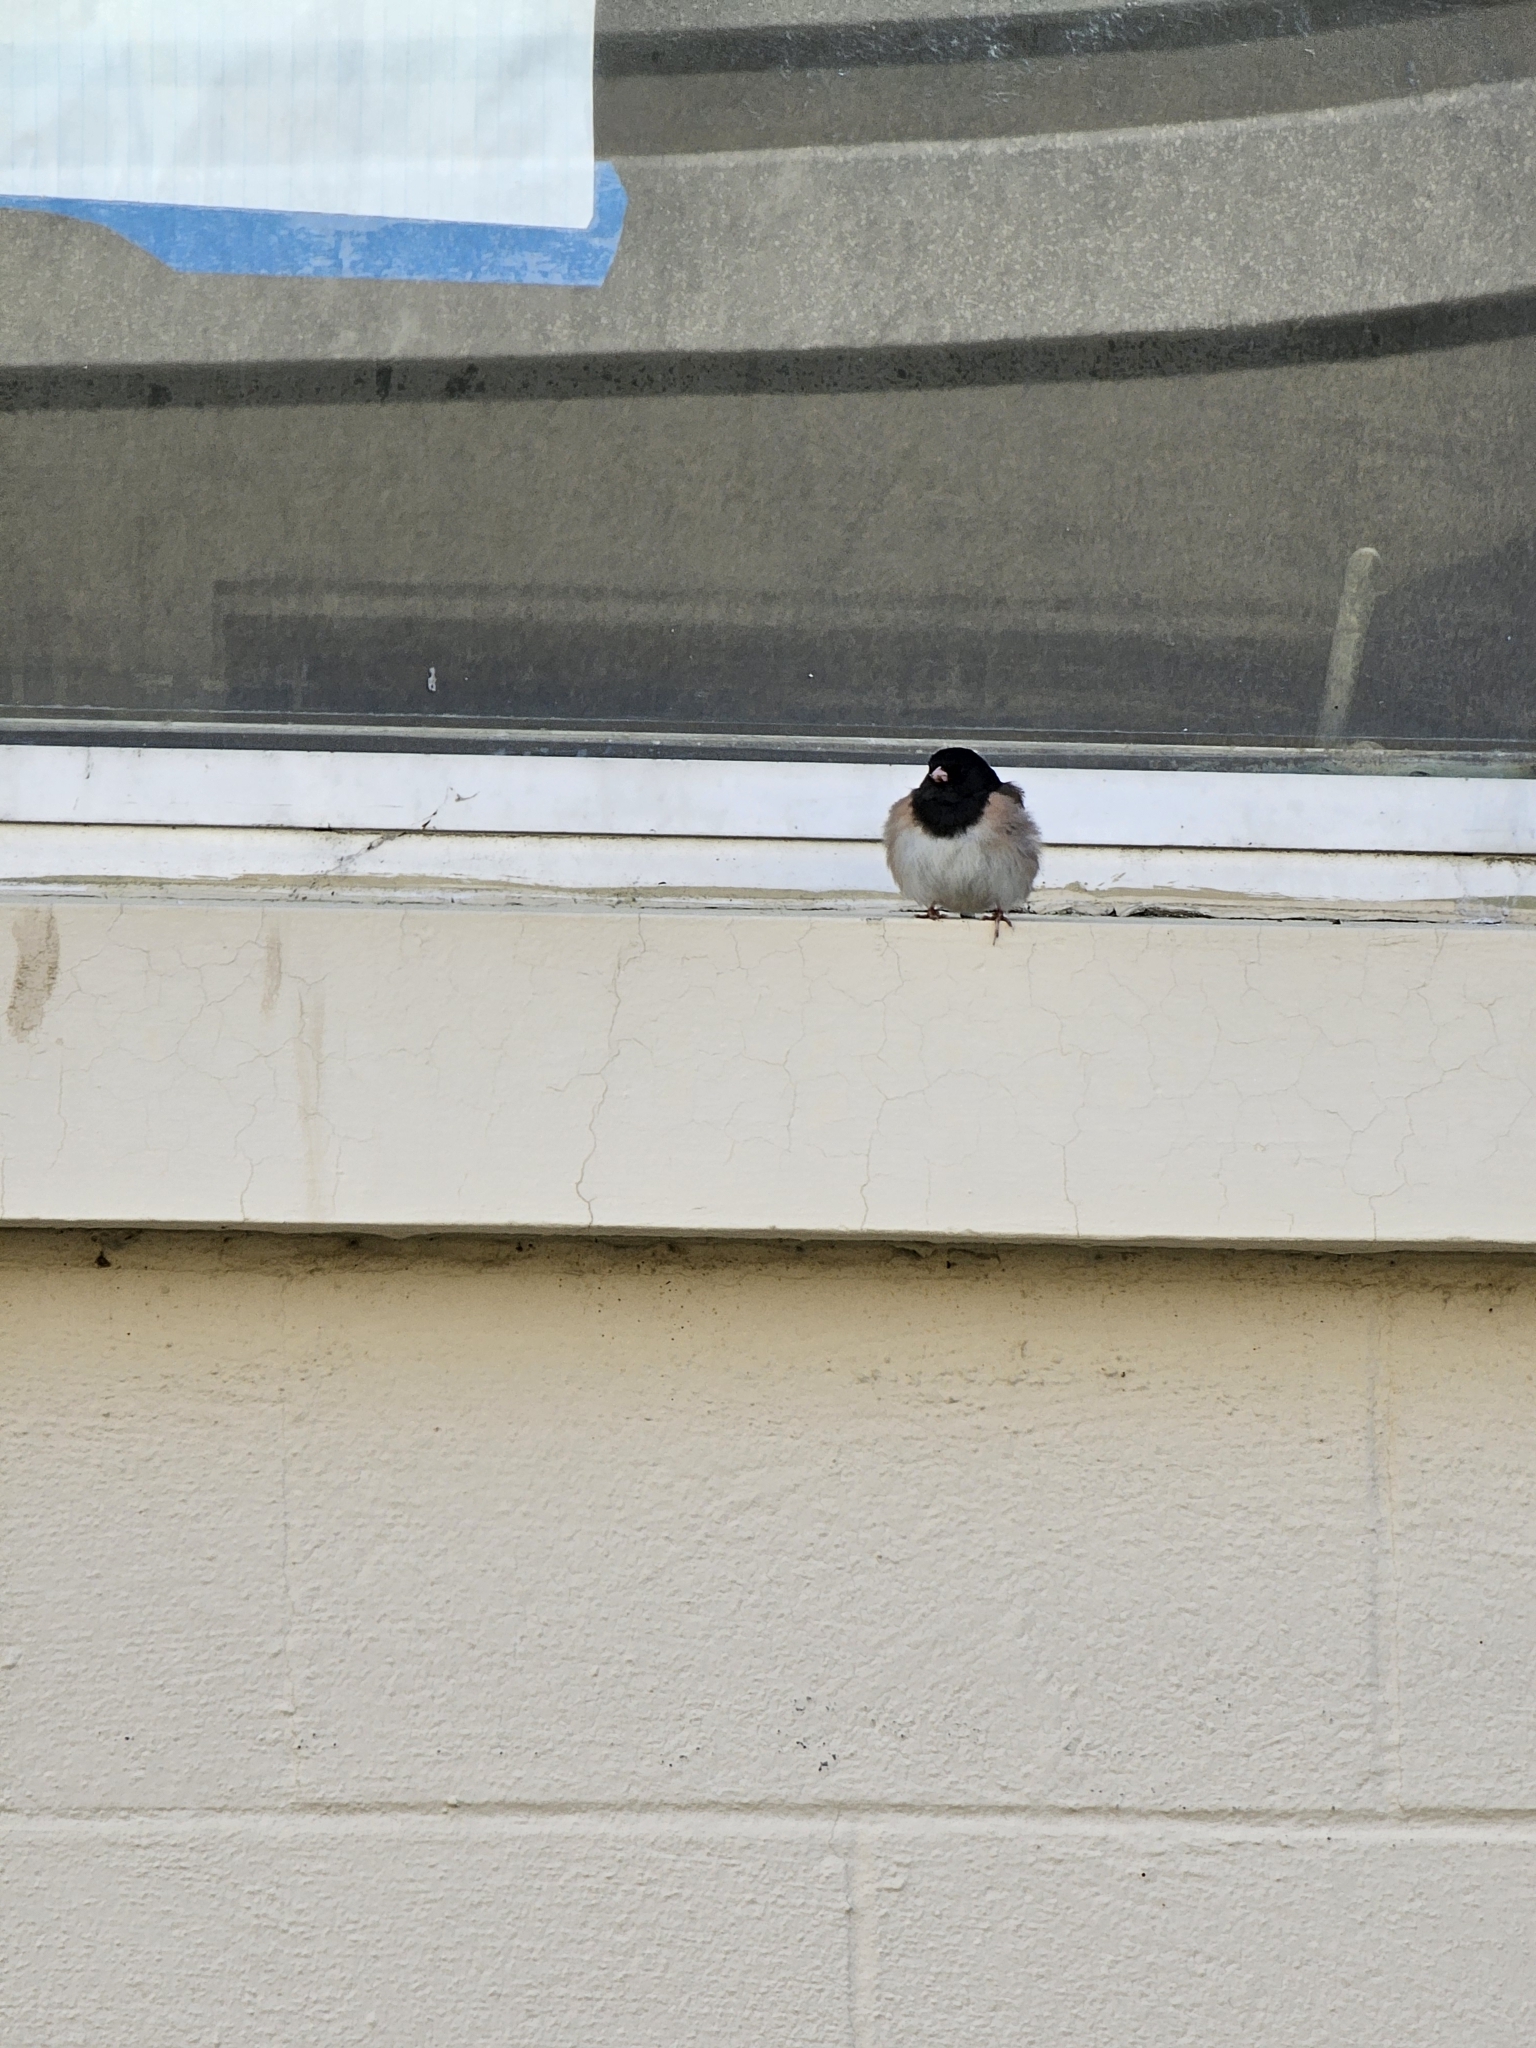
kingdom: Animalia
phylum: Chordata
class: Aves
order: Passeriformes
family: Passerellidae
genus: Junco
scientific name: Junco hyemalis
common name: Dark-eyed junco
